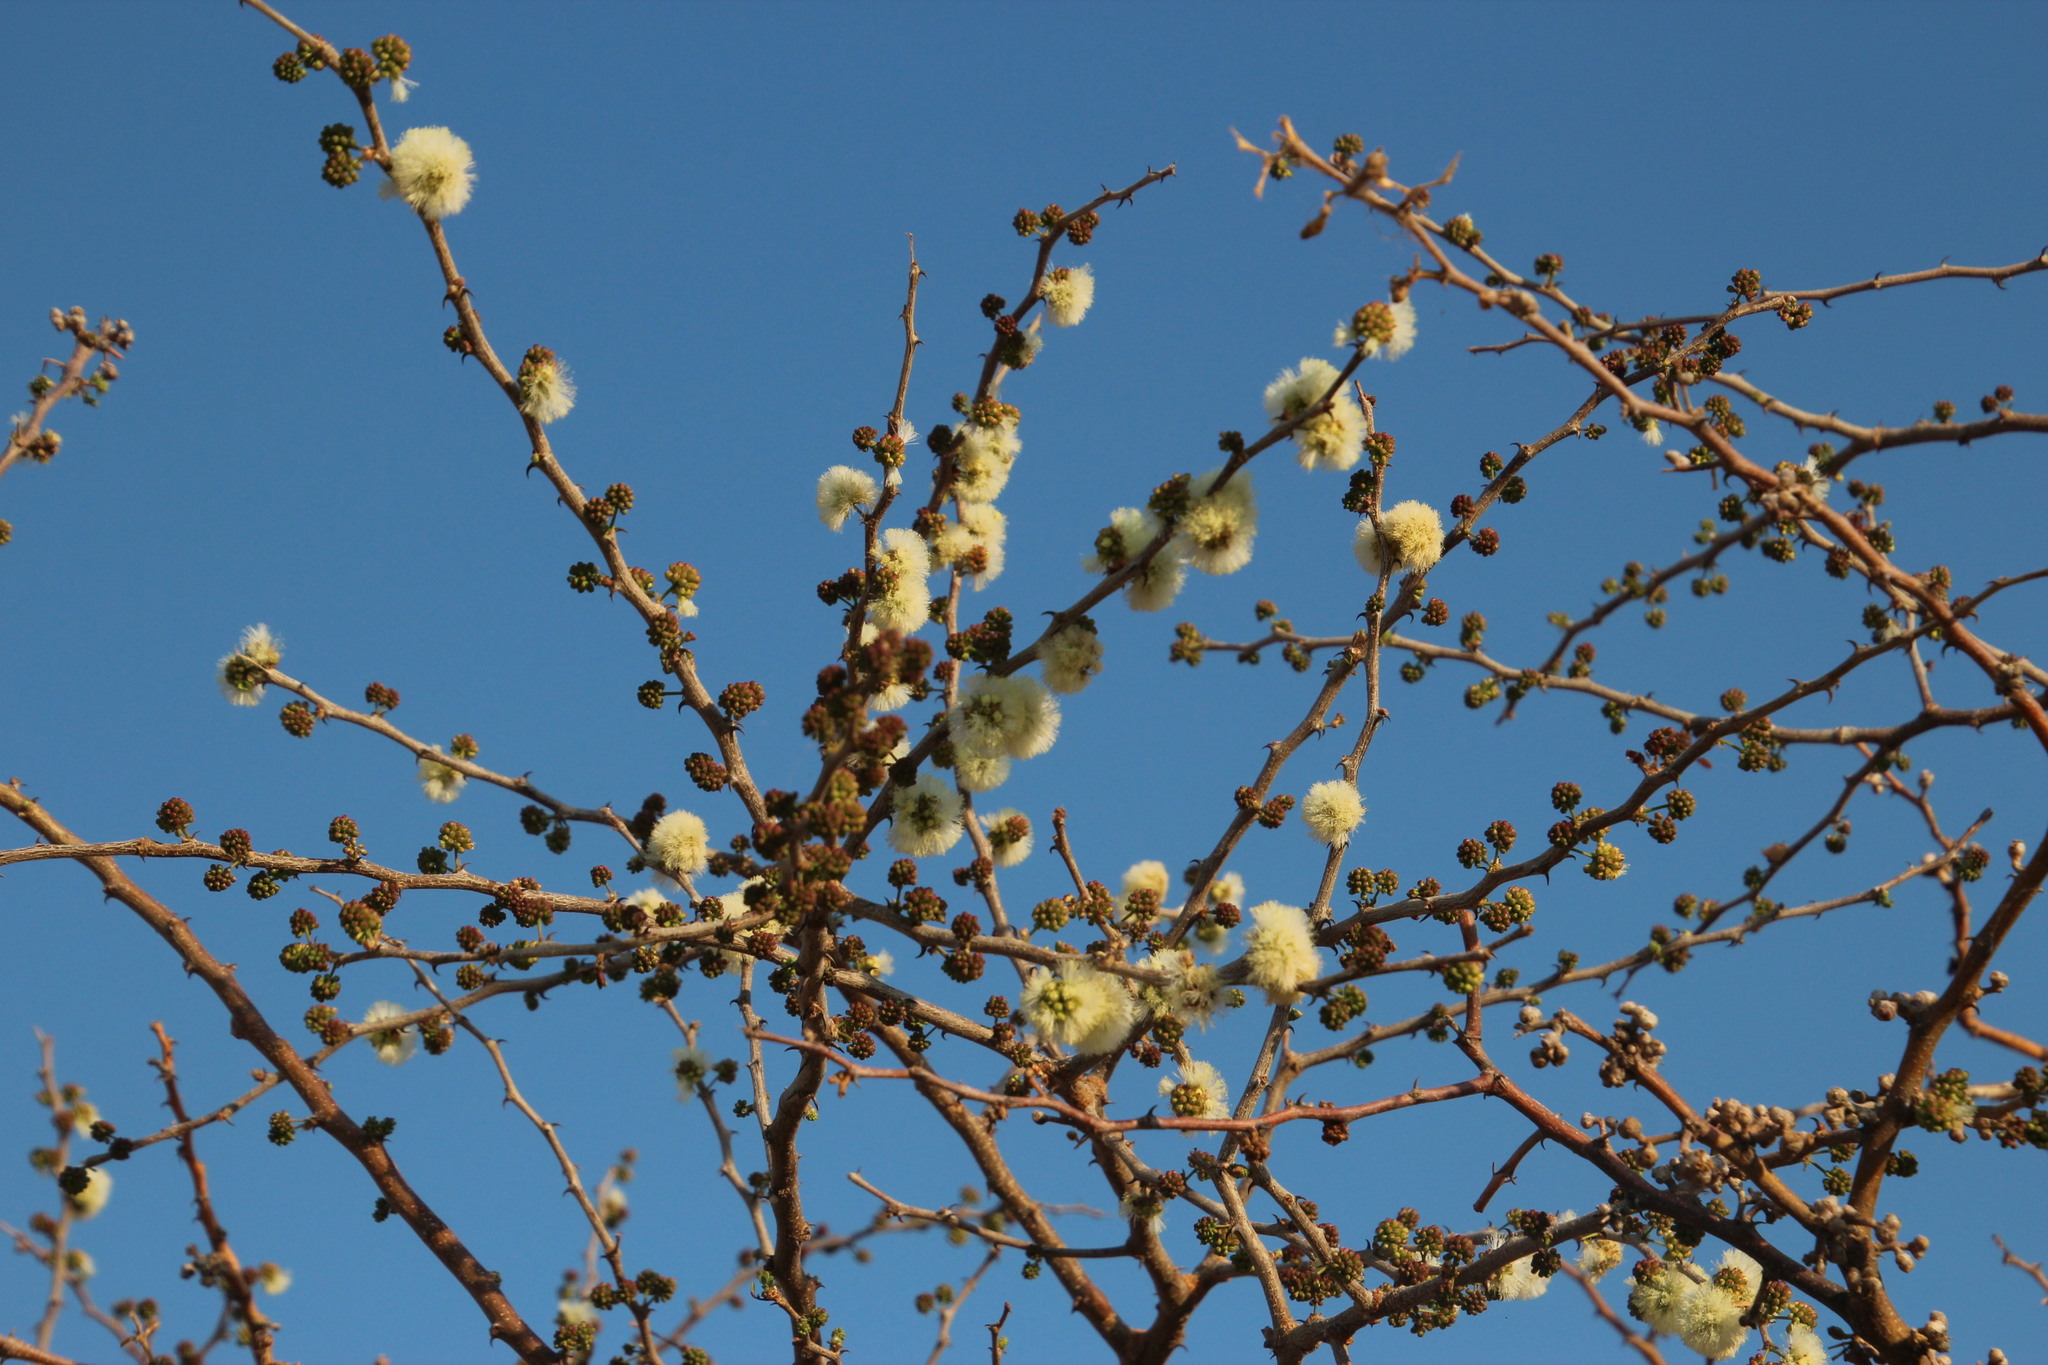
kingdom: Plantae
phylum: Tracheophyta
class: Magnoliopsida
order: Fabales
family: Fabaceae
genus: Senegalia
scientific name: Senegalia mellifera
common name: Hookthorn
